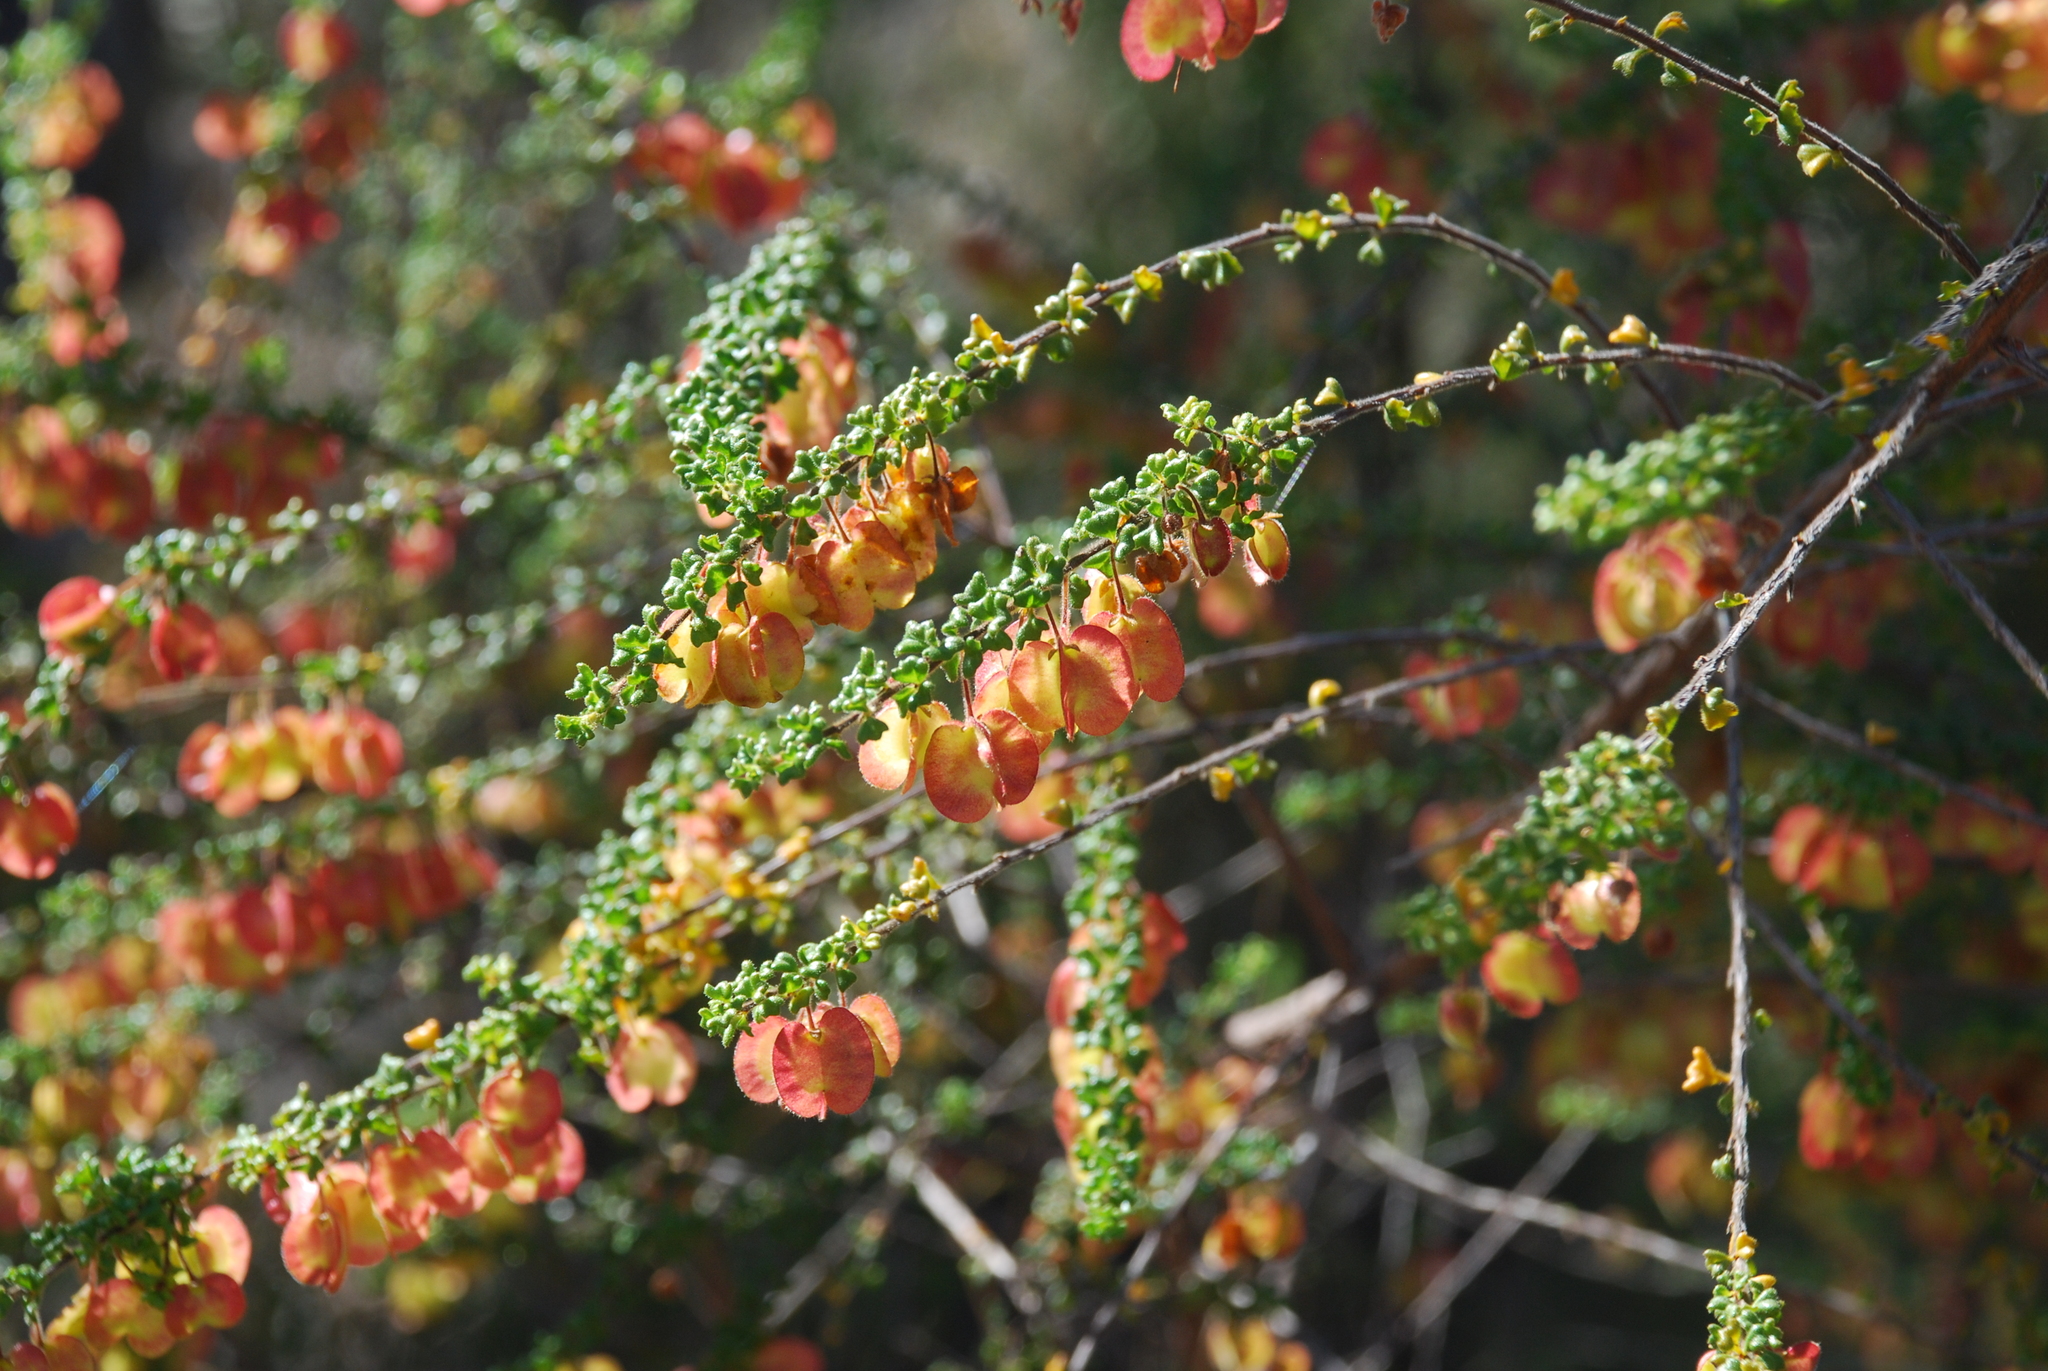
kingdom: Plantae
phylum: Tracheophyta
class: Magnoliopsida
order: Sapindales
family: Sapindaceae
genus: Dodonaea
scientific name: Dodonaea hirsuta
